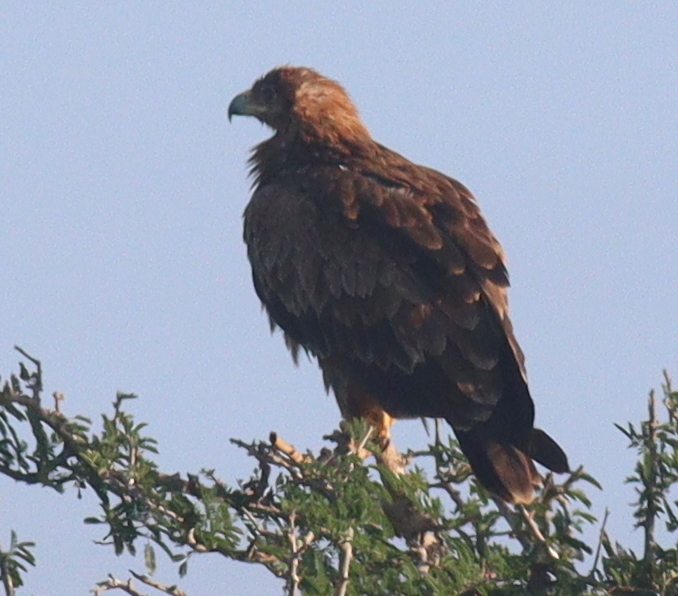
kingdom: Animalia
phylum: Chordata
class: Aves
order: Accipitriformes
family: Accipitridae
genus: Aquila
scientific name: Aquila rapax
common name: Tawny eagle
